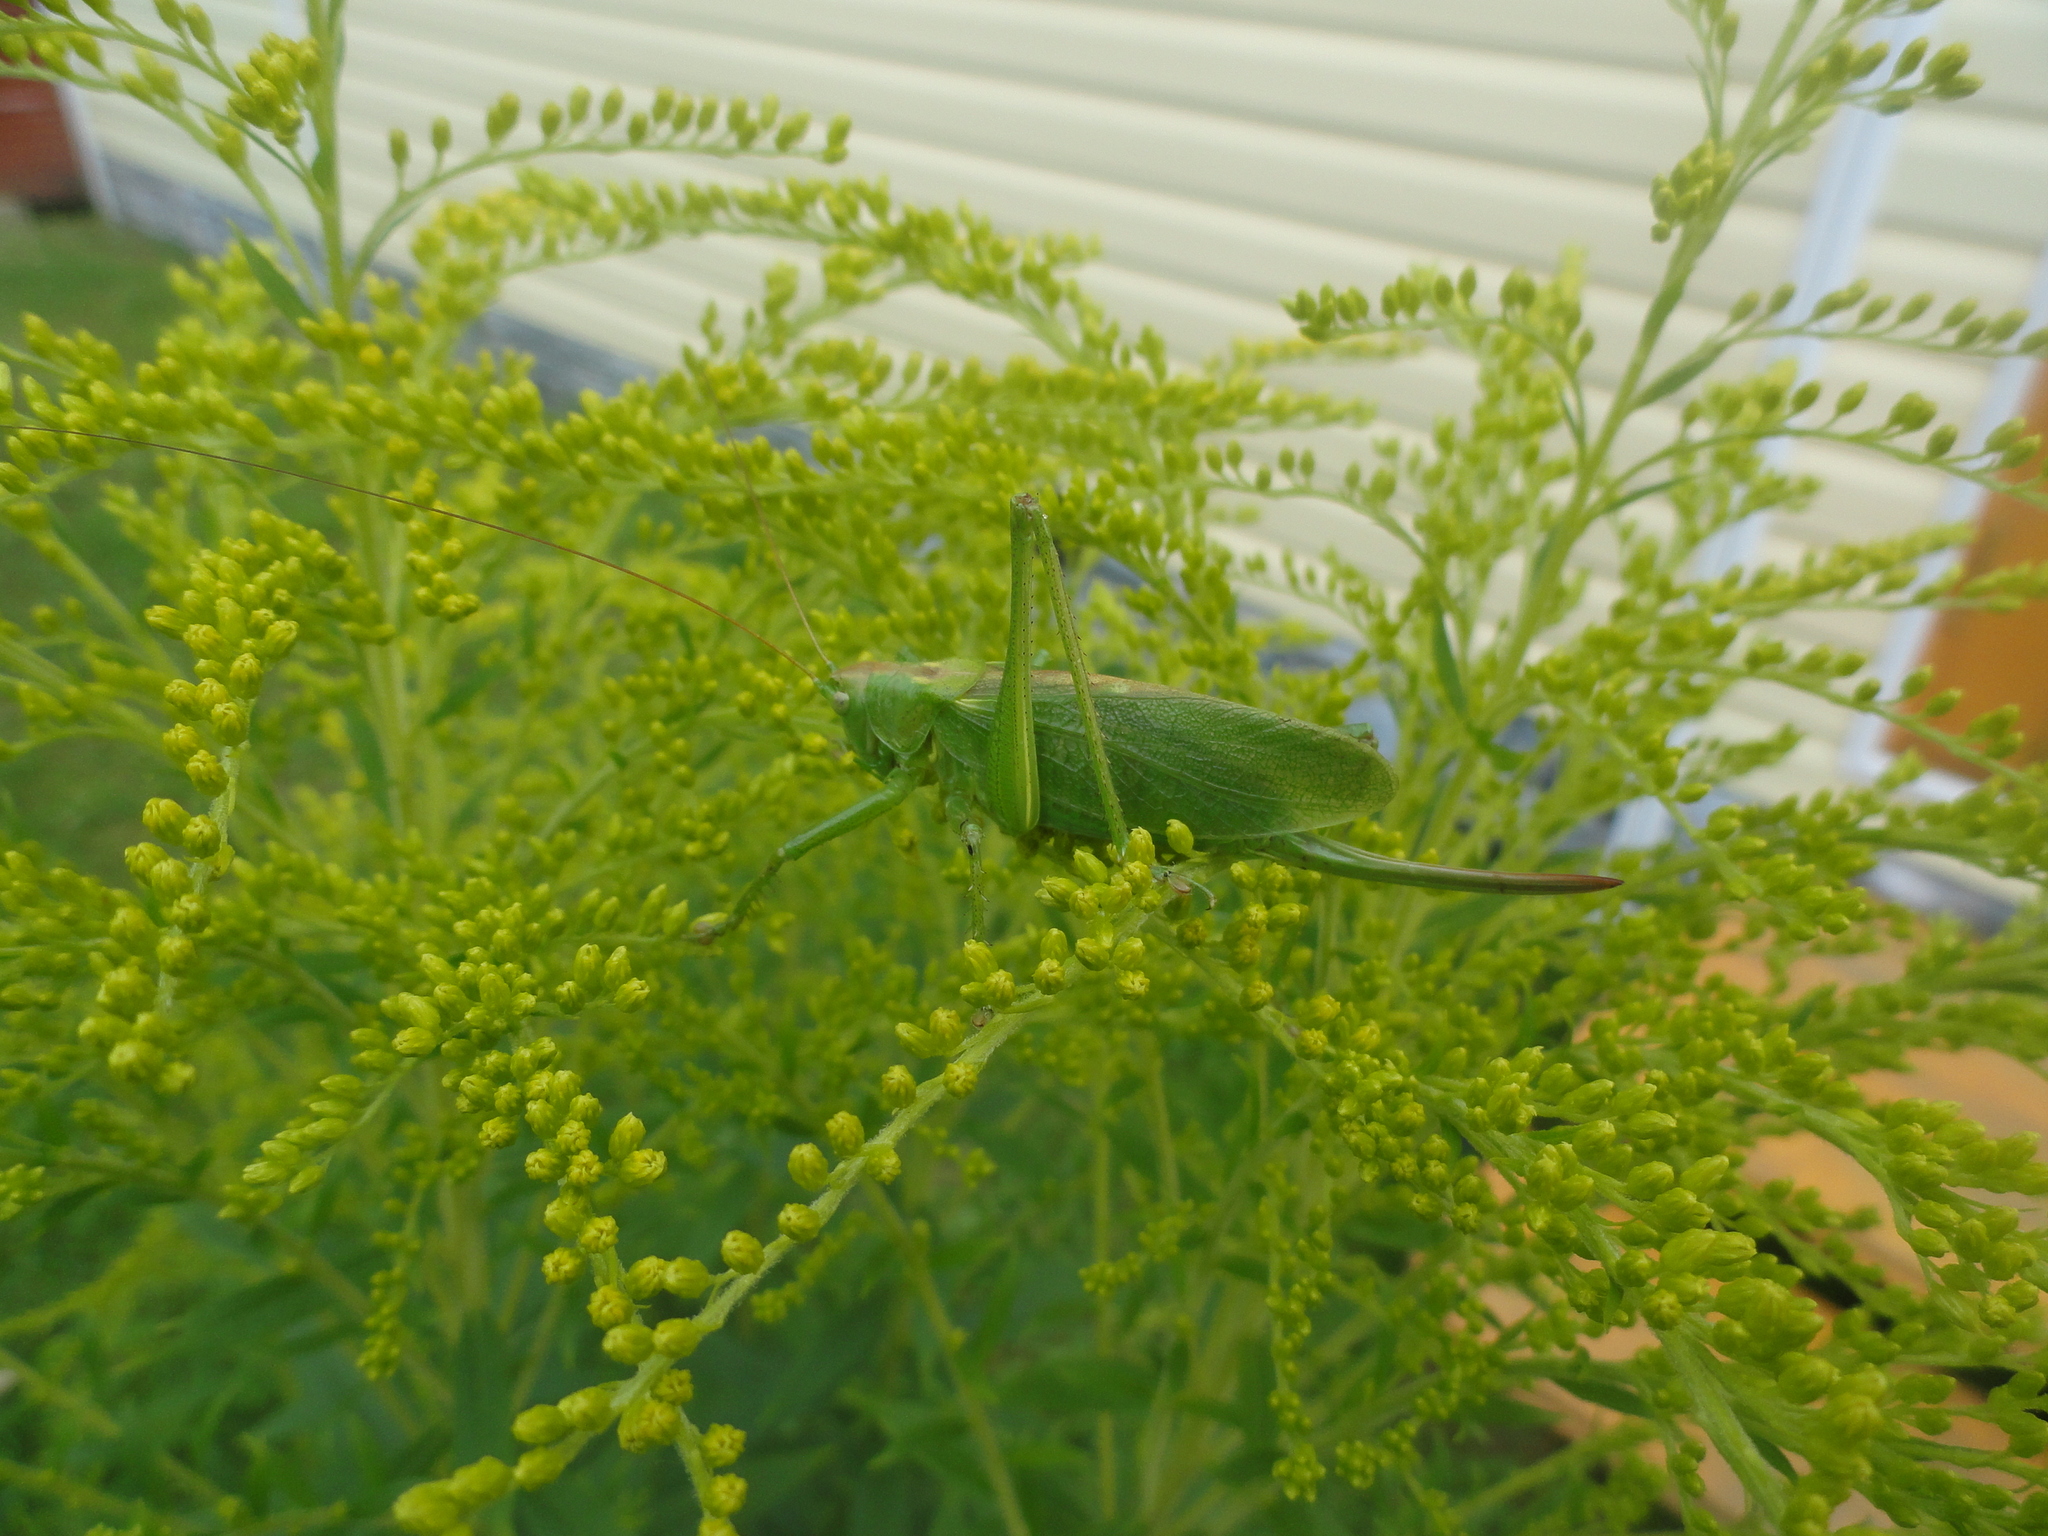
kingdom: Animalia
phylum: Arthropoda
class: Insecta
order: Orthoptera
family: Tettigoniidae
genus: Tettigonia
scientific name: Tettigonia cantans
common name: Upland green bush-cricket
